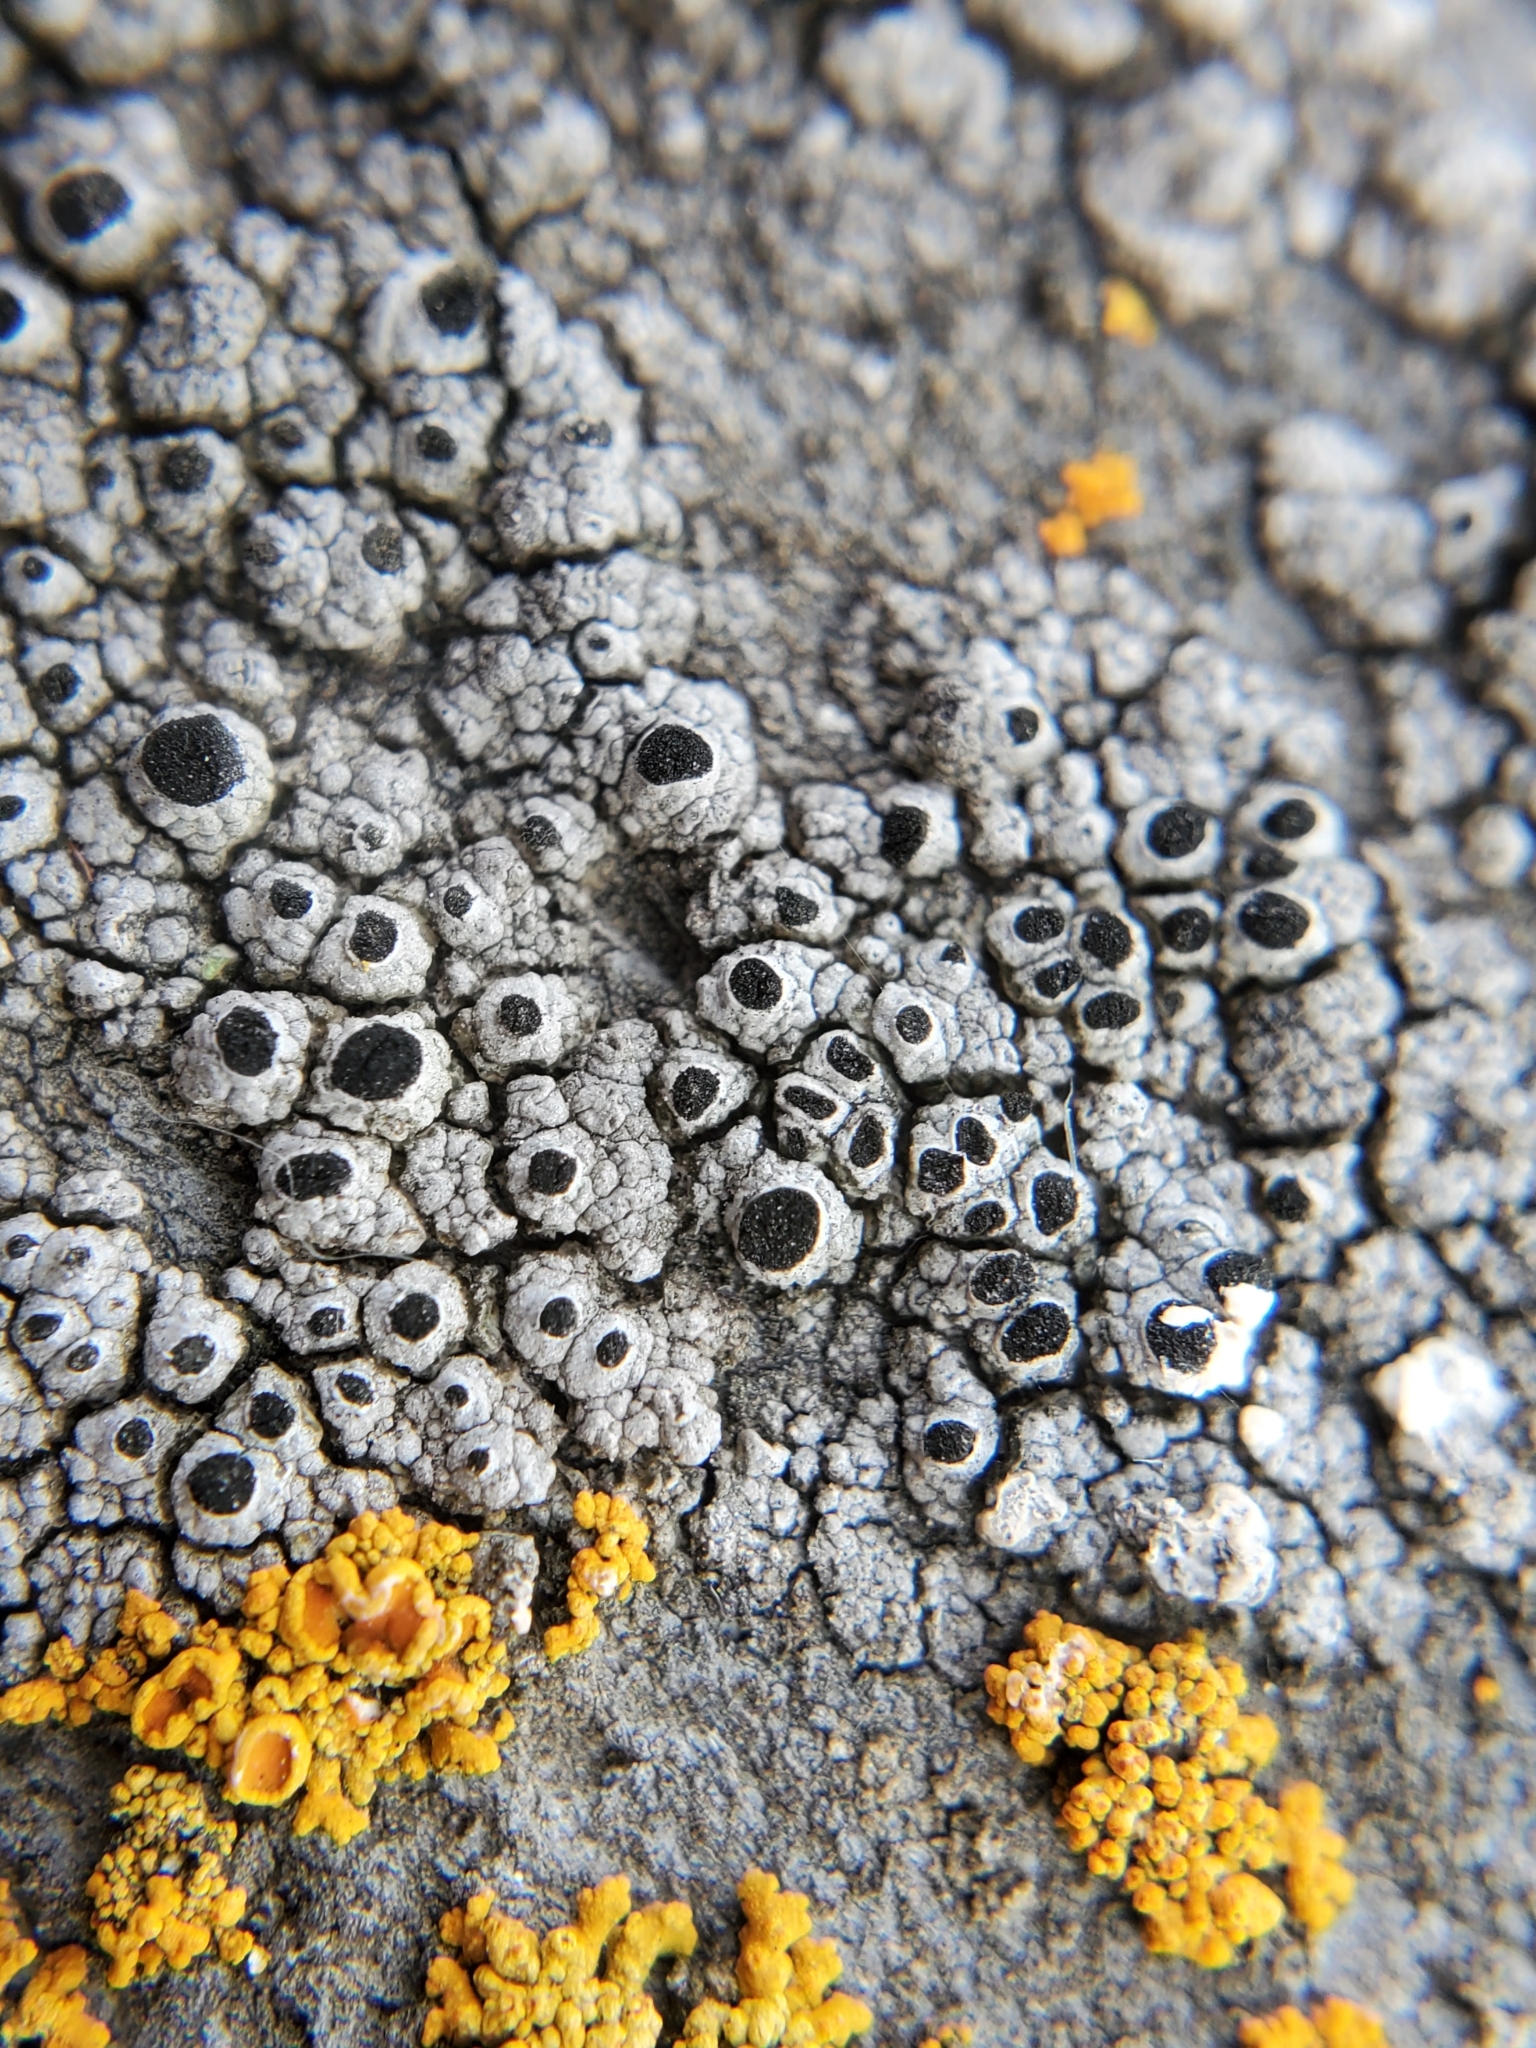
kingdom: Fungi
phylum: Ascomycota
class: Lecanoromycetes
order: Caliciales
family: Caliciaceae
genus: Pseudothelomma
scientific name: Pseudothelomma occidentale
